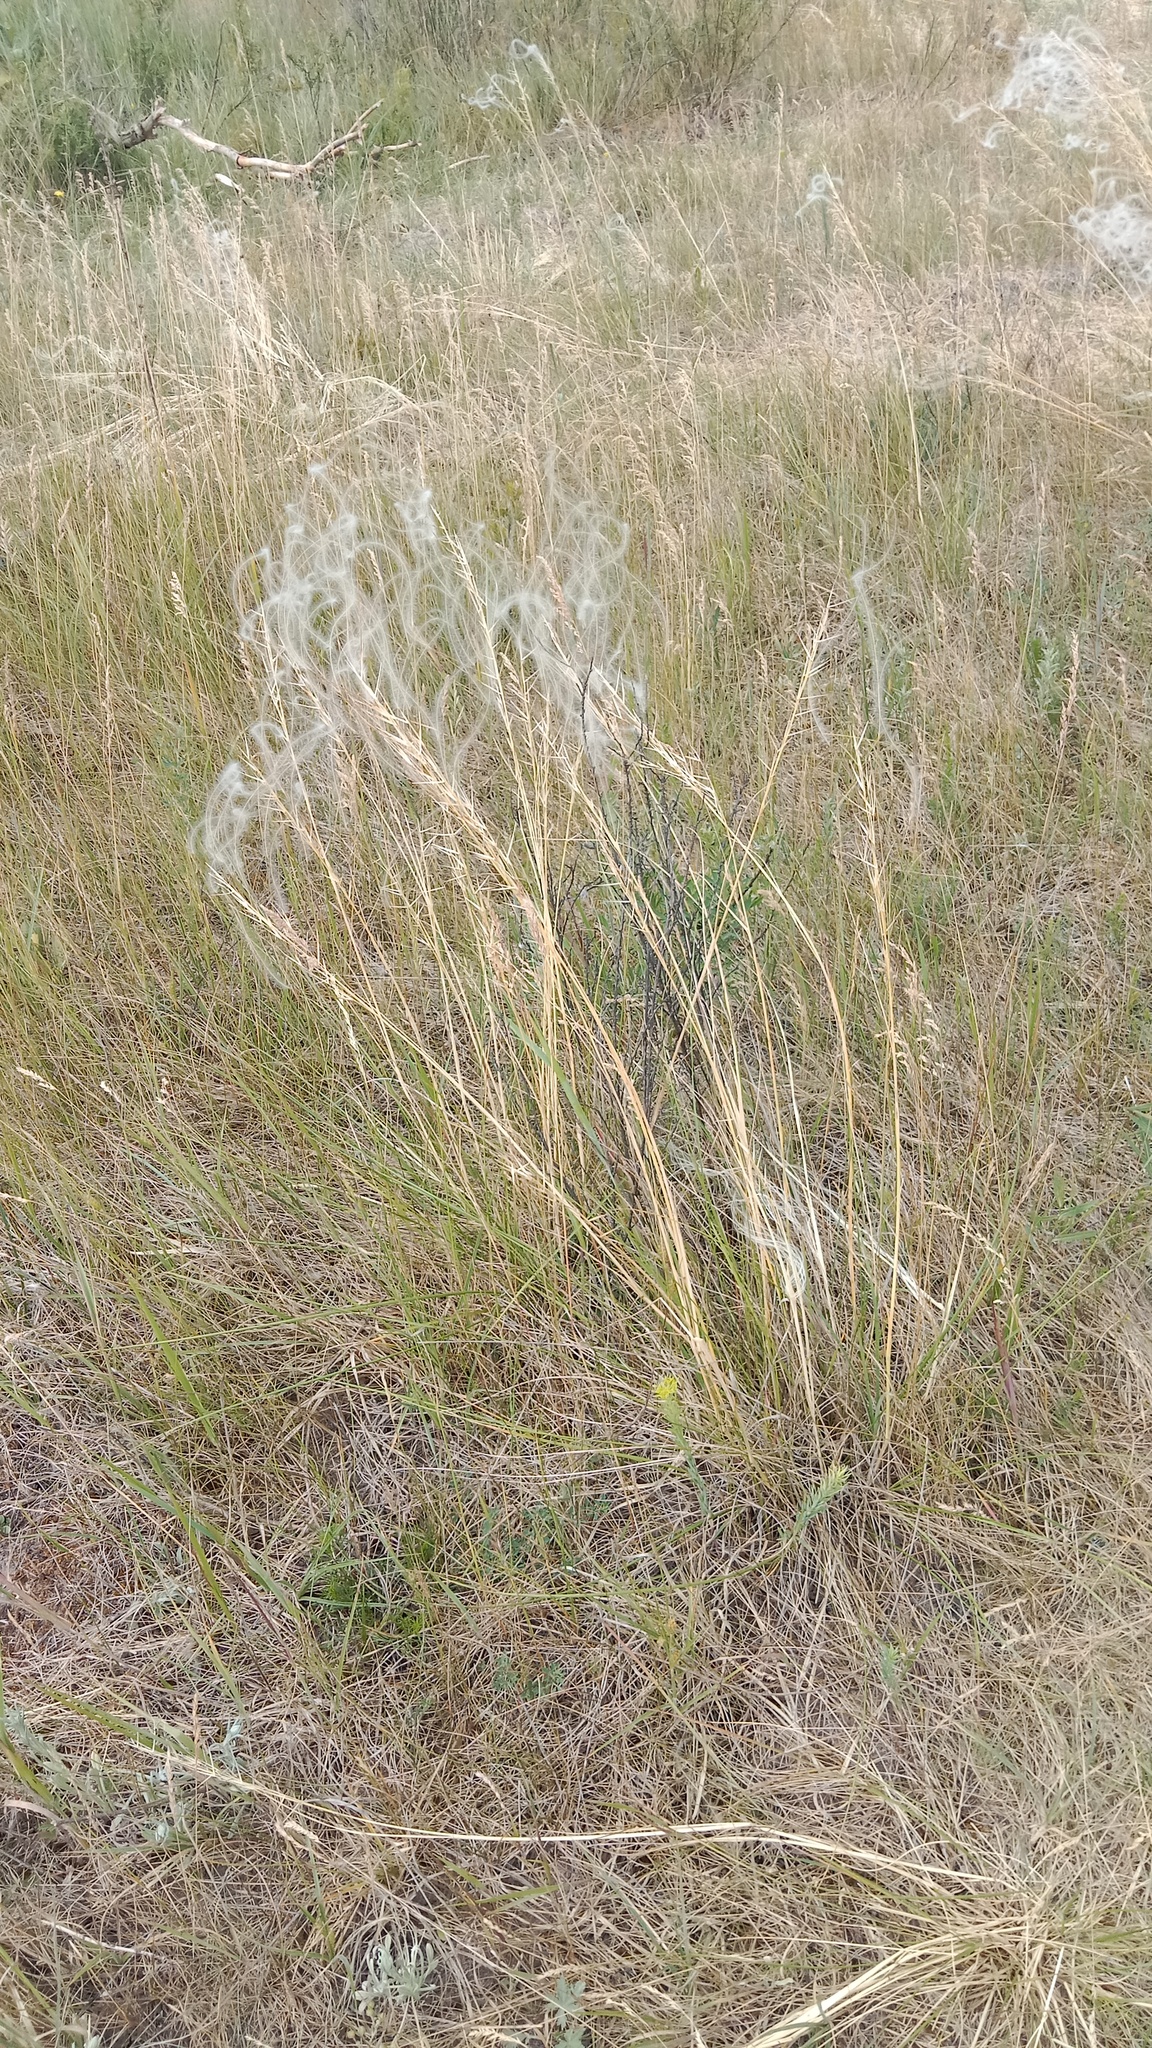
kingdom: Plantae
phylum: Tracheophyta
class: Liliopsida
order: Poales
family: Poaceae
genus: Stipa
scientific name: Stipa borysthenica
